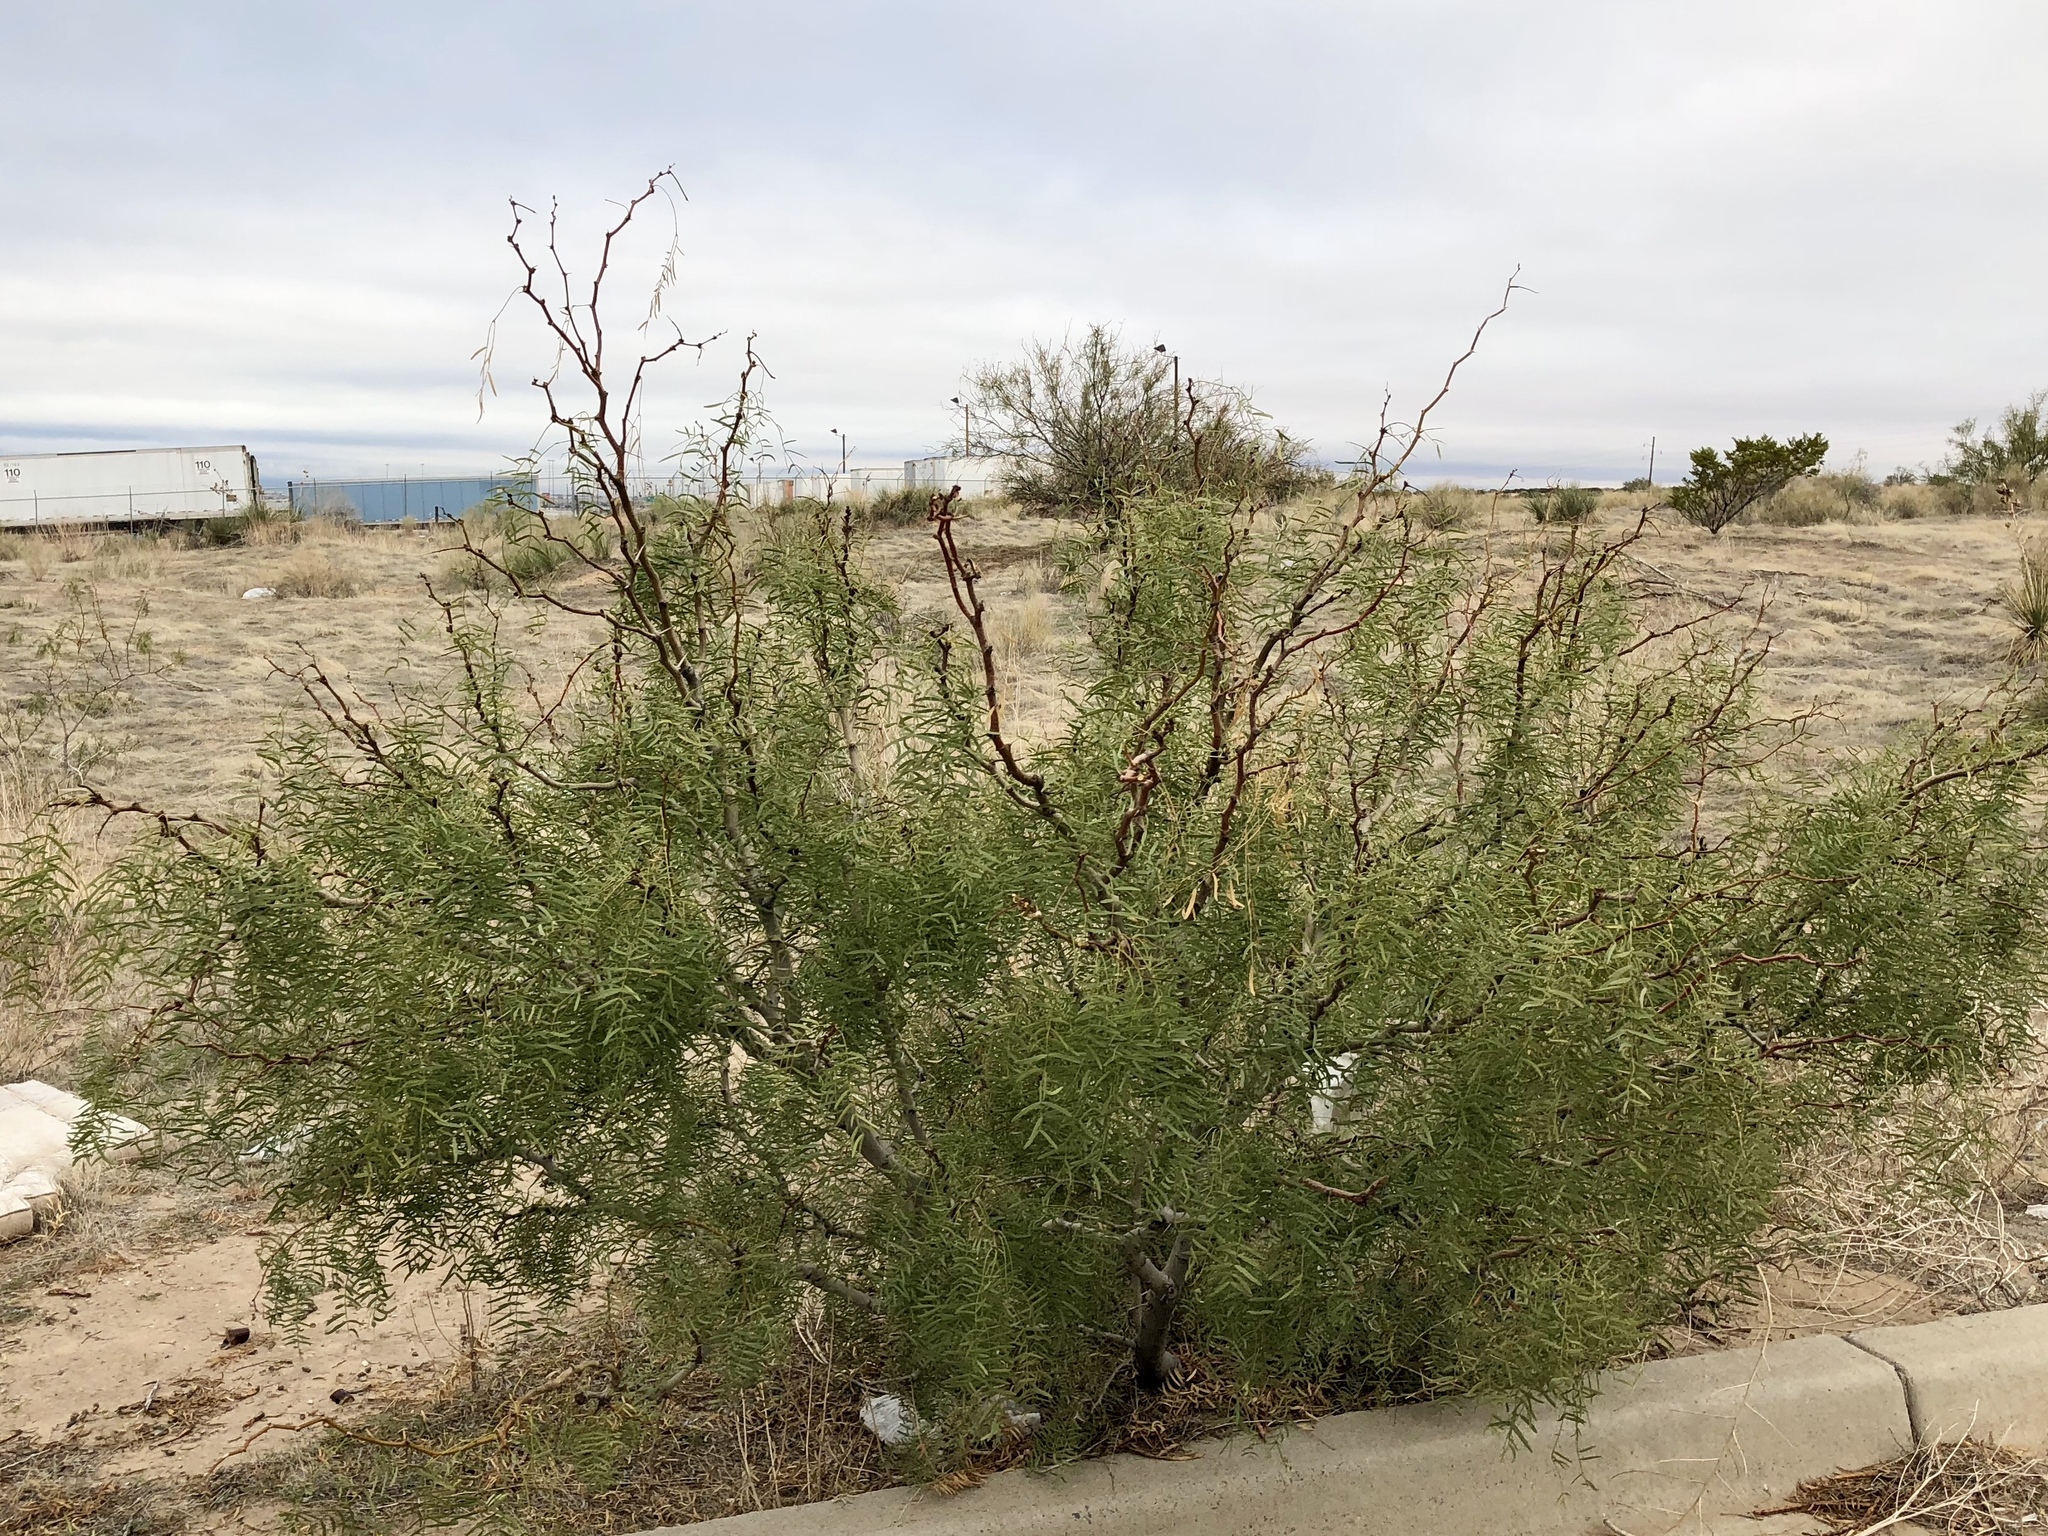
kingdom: Plantae
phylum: Tracheophyta
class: Magnoliopsida
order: Fabales
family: Fabaceae
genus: Prosopis
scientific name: Prosopis glandulosa
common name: Honey mesquite
